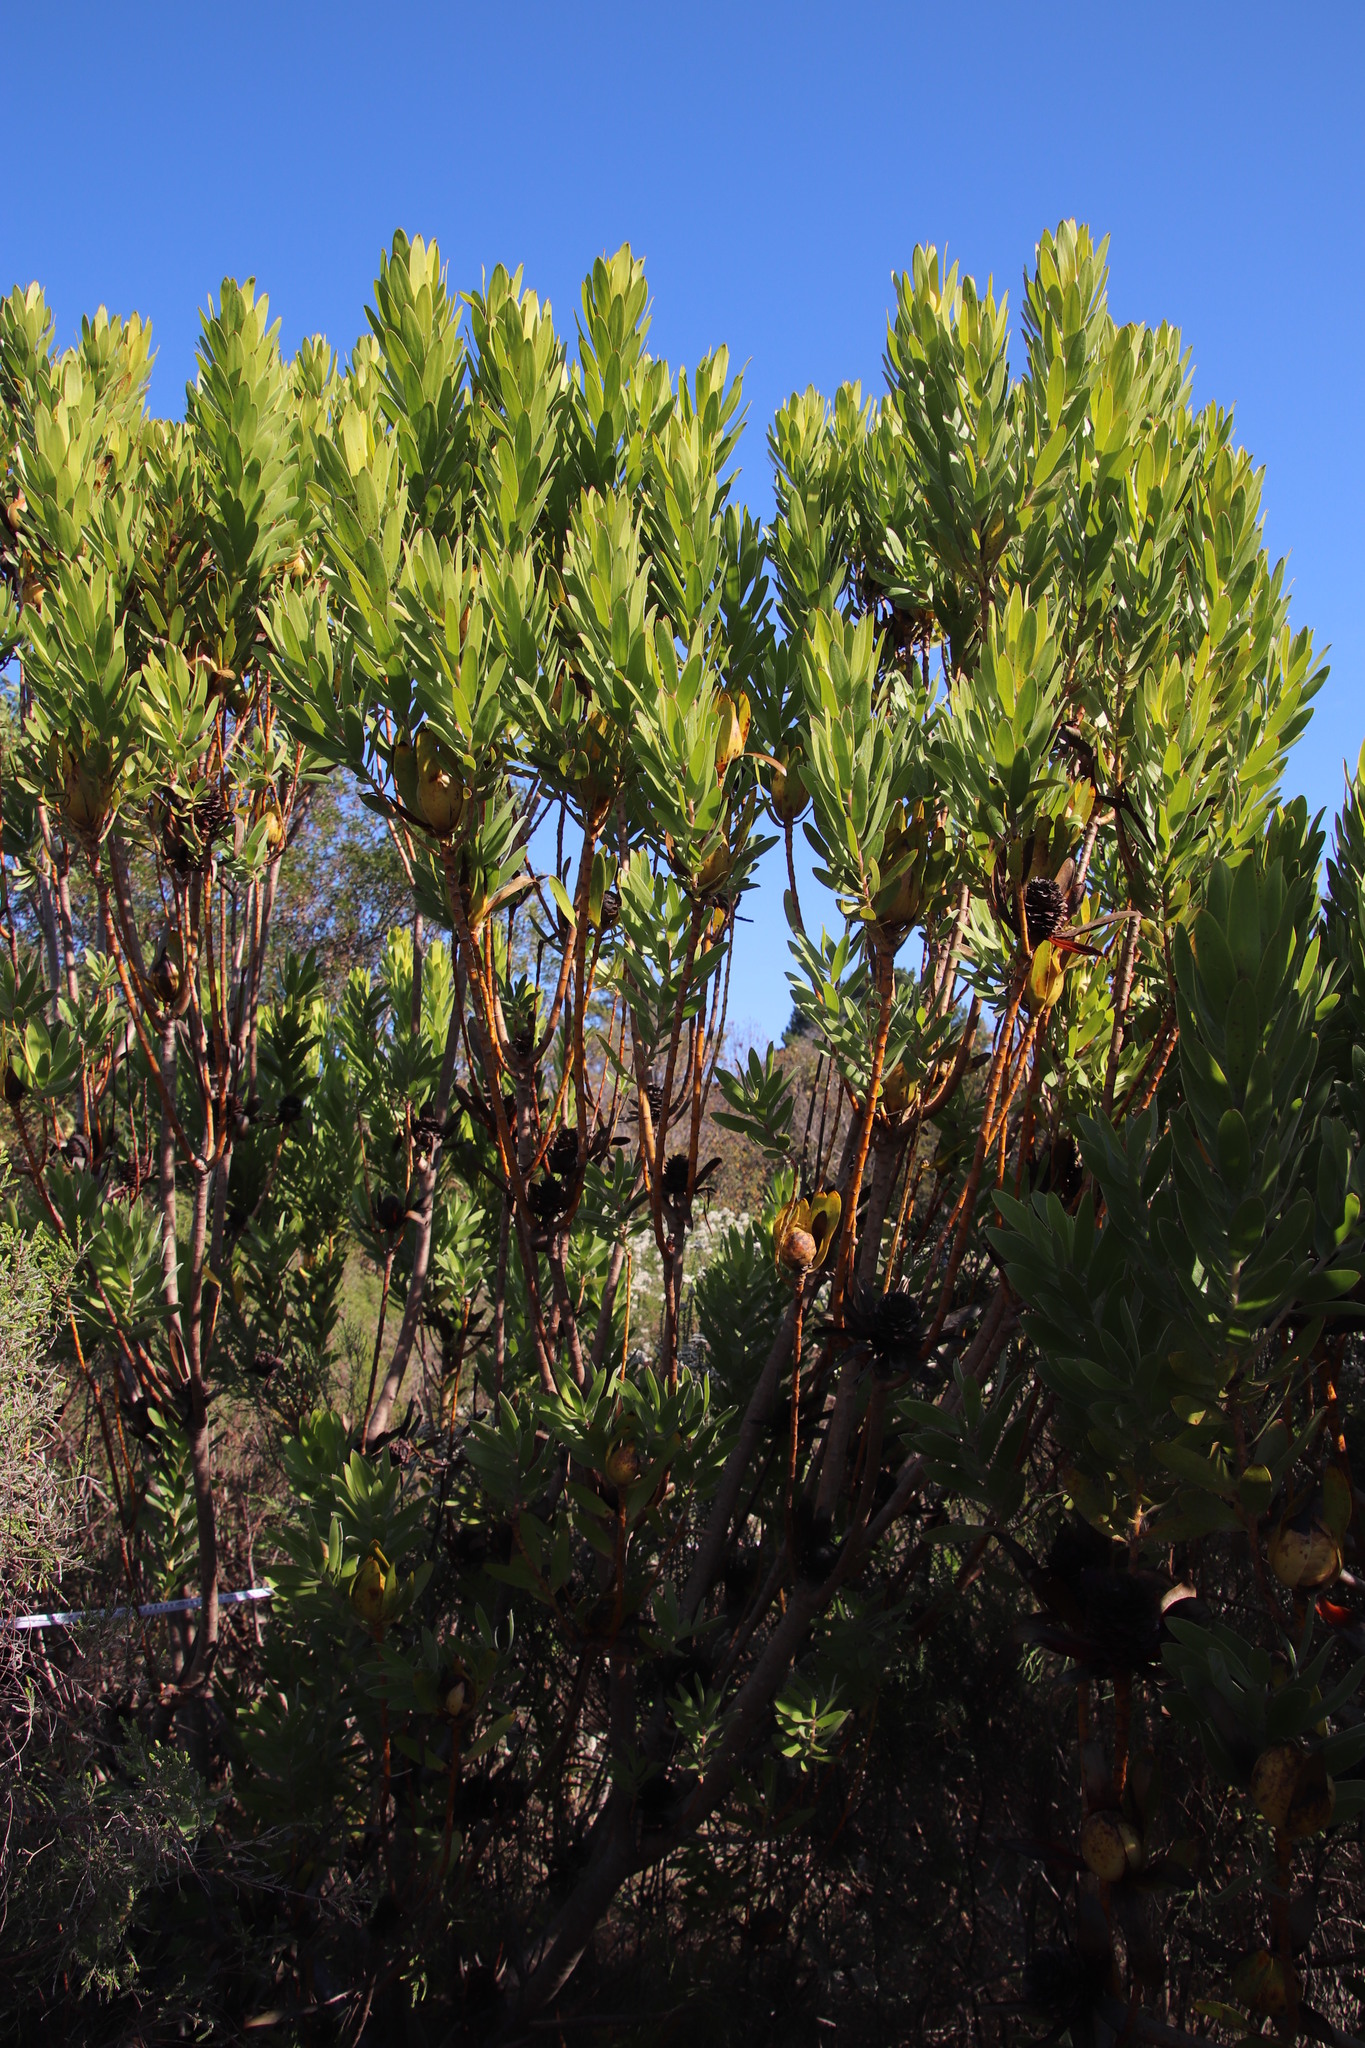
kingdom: Plantae
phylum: Tracheophyta
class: Magnoliopsida
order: Proteales
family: Proteaceae
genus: Leucadendron
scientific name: Leucadendron laureolum
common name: Golden sunshinebush
